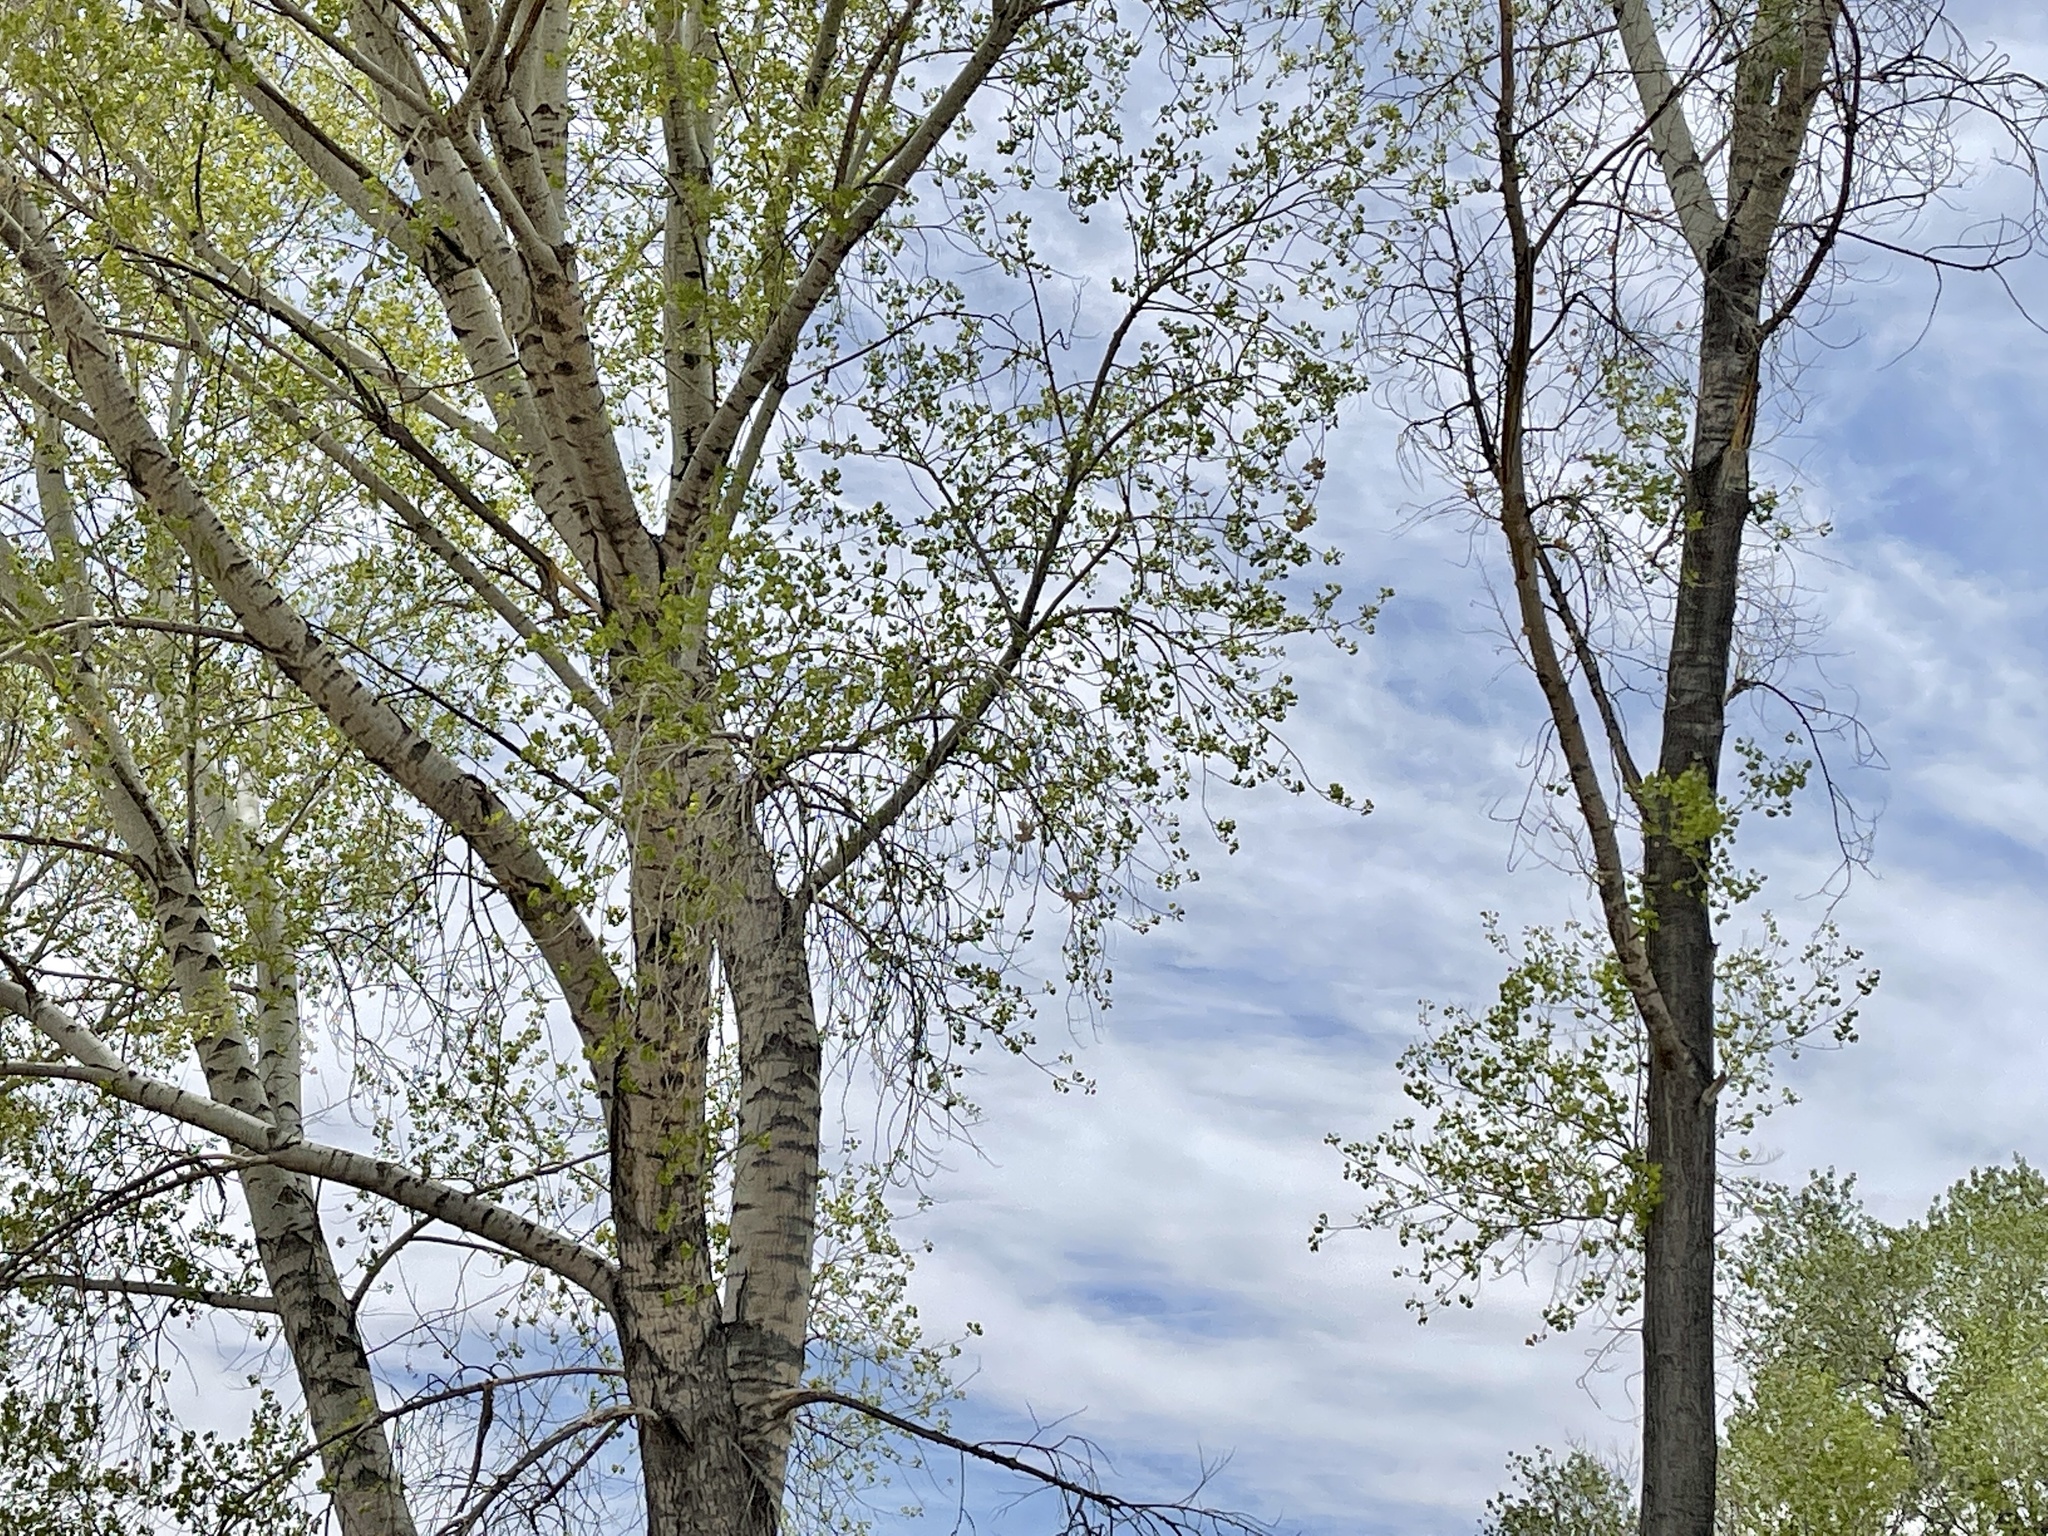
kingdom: Plantae
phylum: Tracheophyta
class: Magnoliopsida
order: Malpighiales
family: Salicaceae
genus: Populus
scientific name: Populus fremontii
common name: Fremont's cottonwood
